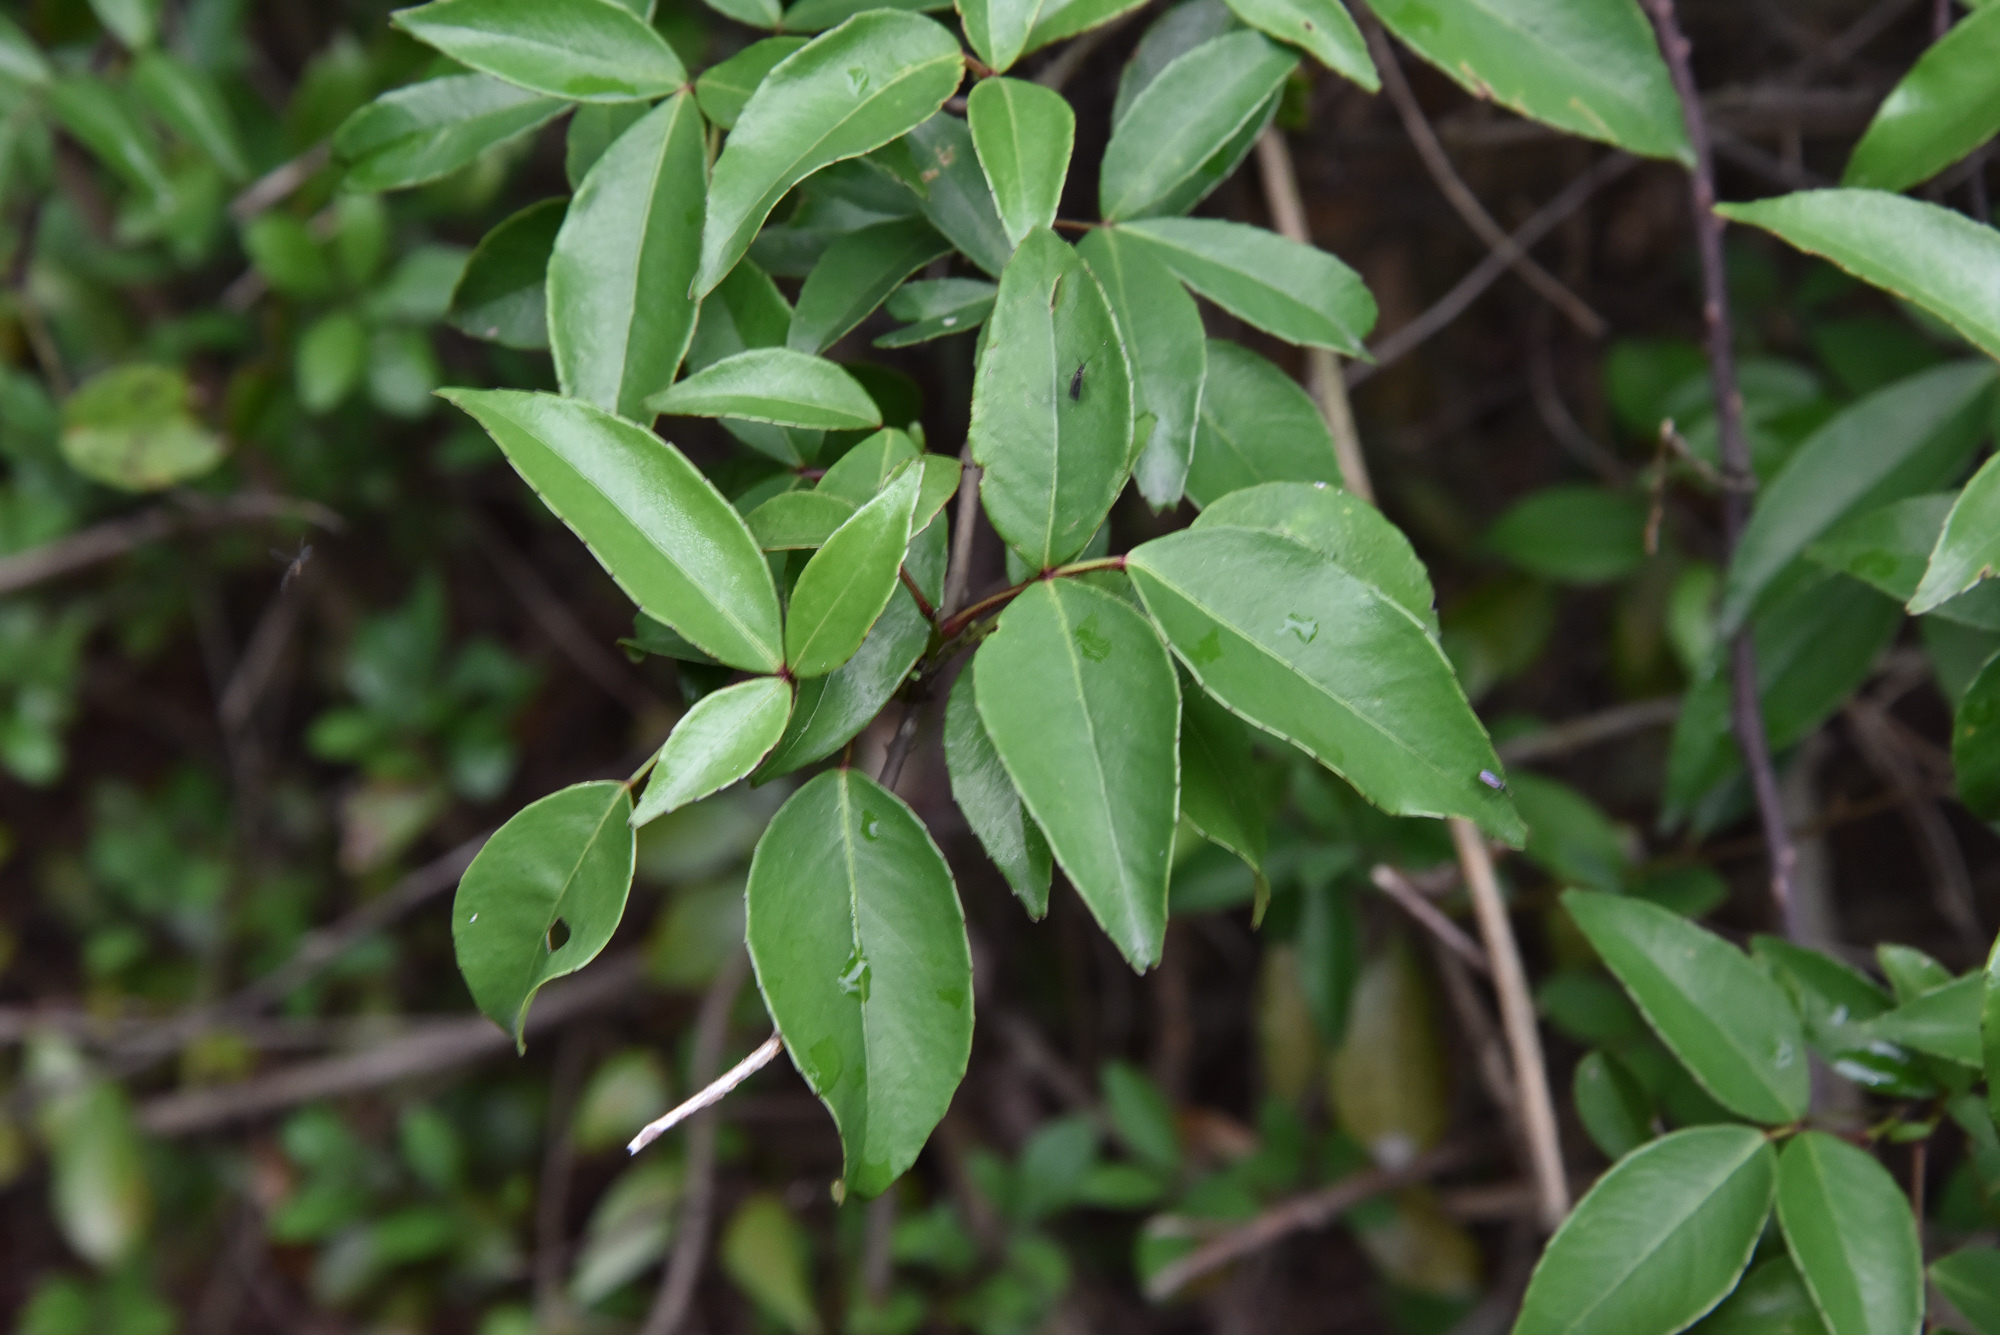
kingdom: Plantae
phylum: Tracheophyta
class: Magnoliopsida
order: Sapindales
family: Rutaceae
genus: Zanthoxylum
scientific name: Zanthoxylum nitidum
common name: Shiny-leaf prickly-ash
